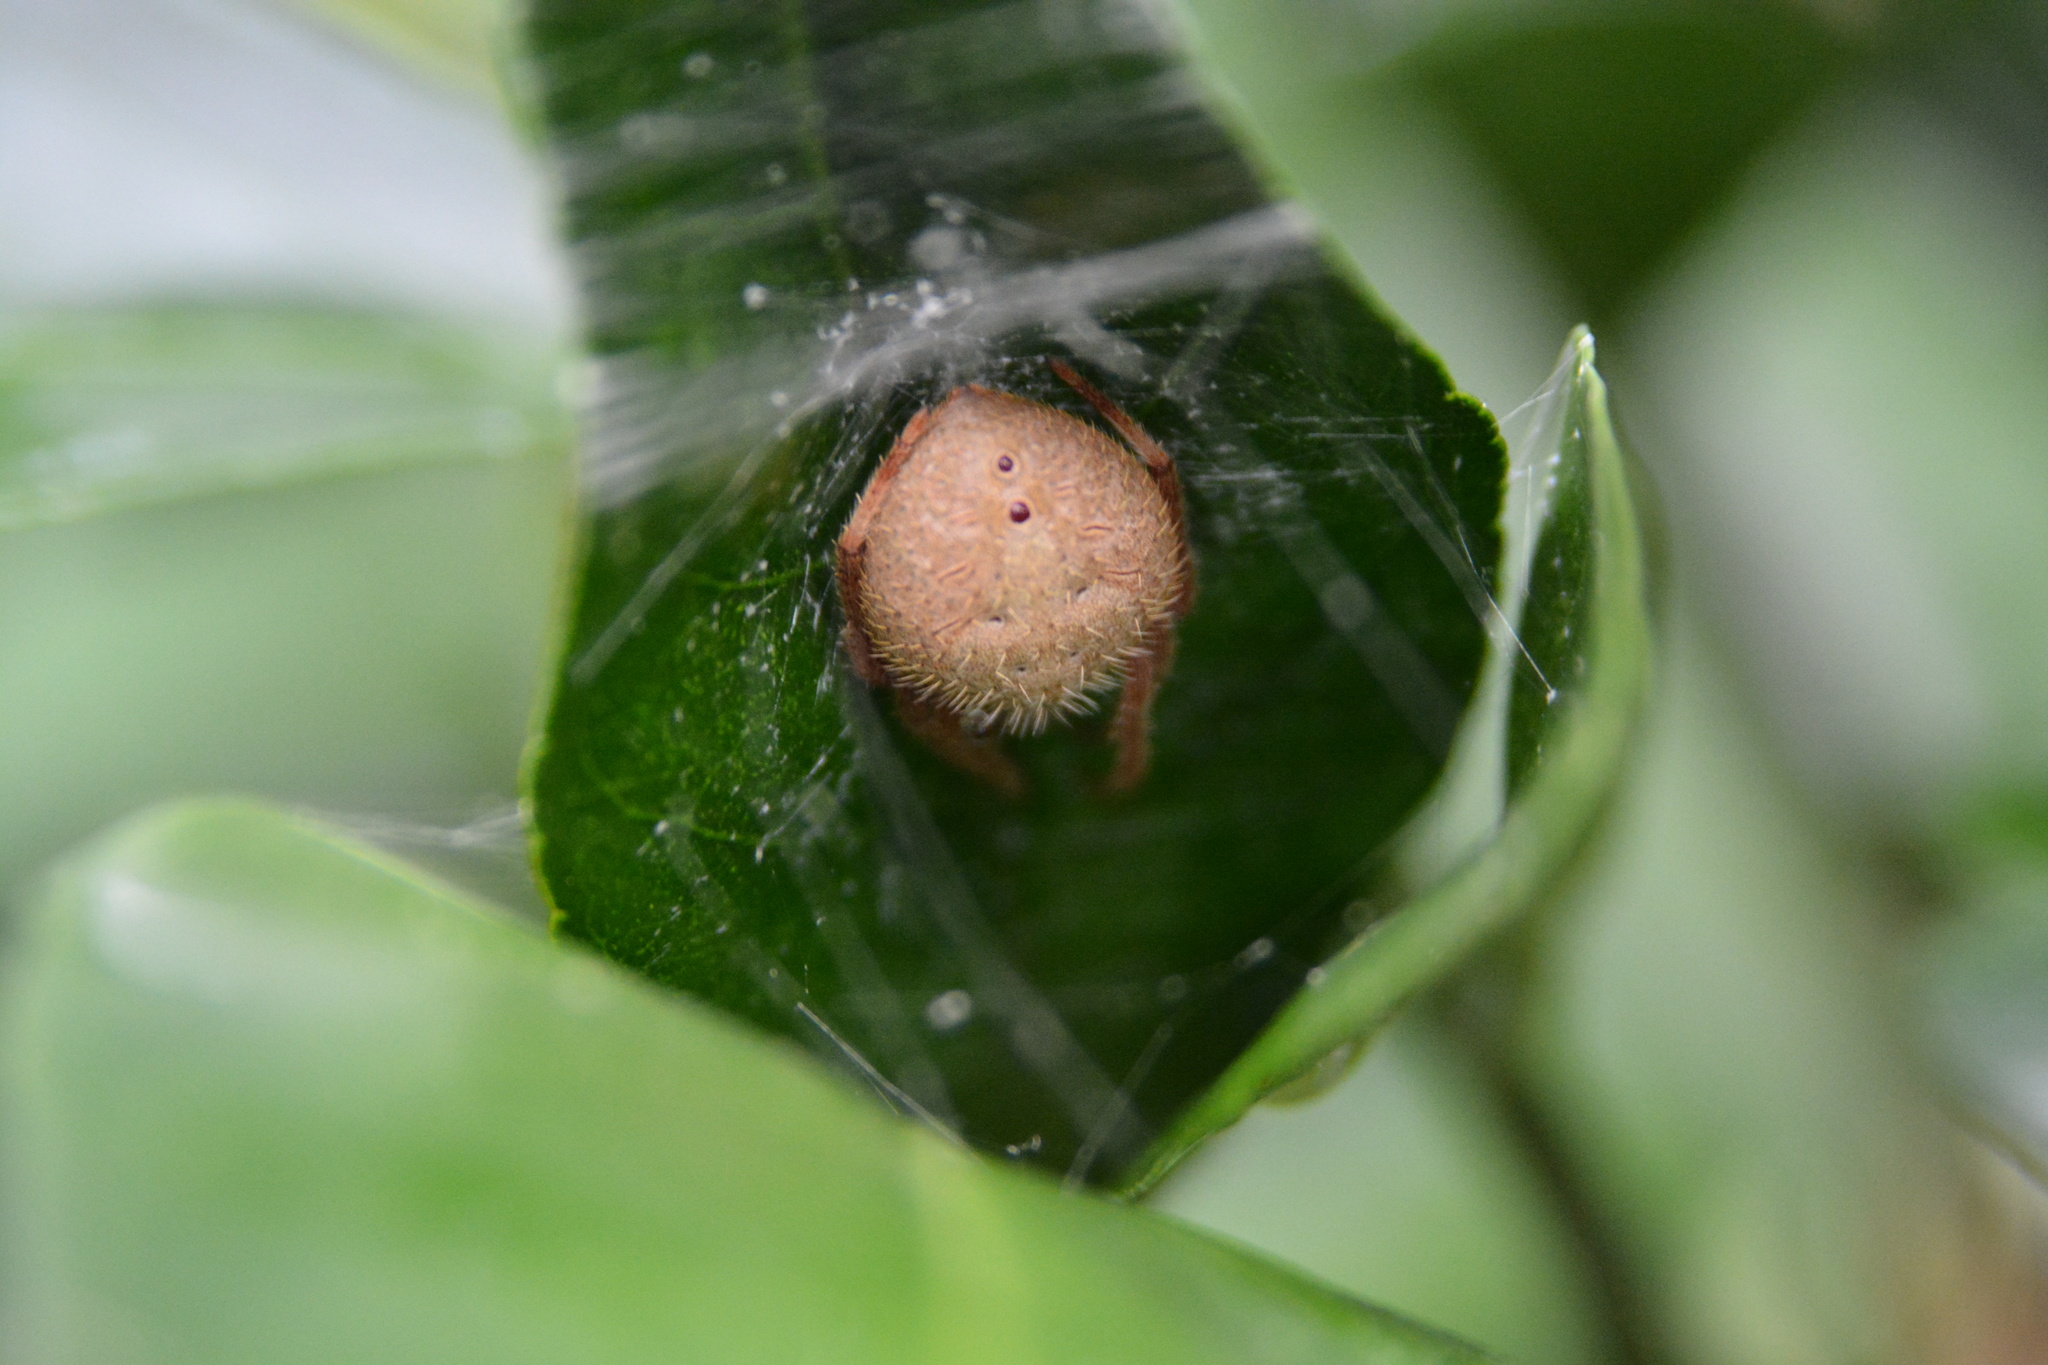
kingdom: Animalia
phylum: Arthropoda
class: Arachnida
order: Araneae
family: Araneidae
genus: Eriophora
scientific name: Eriophora ravilla
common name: Orb weavers
